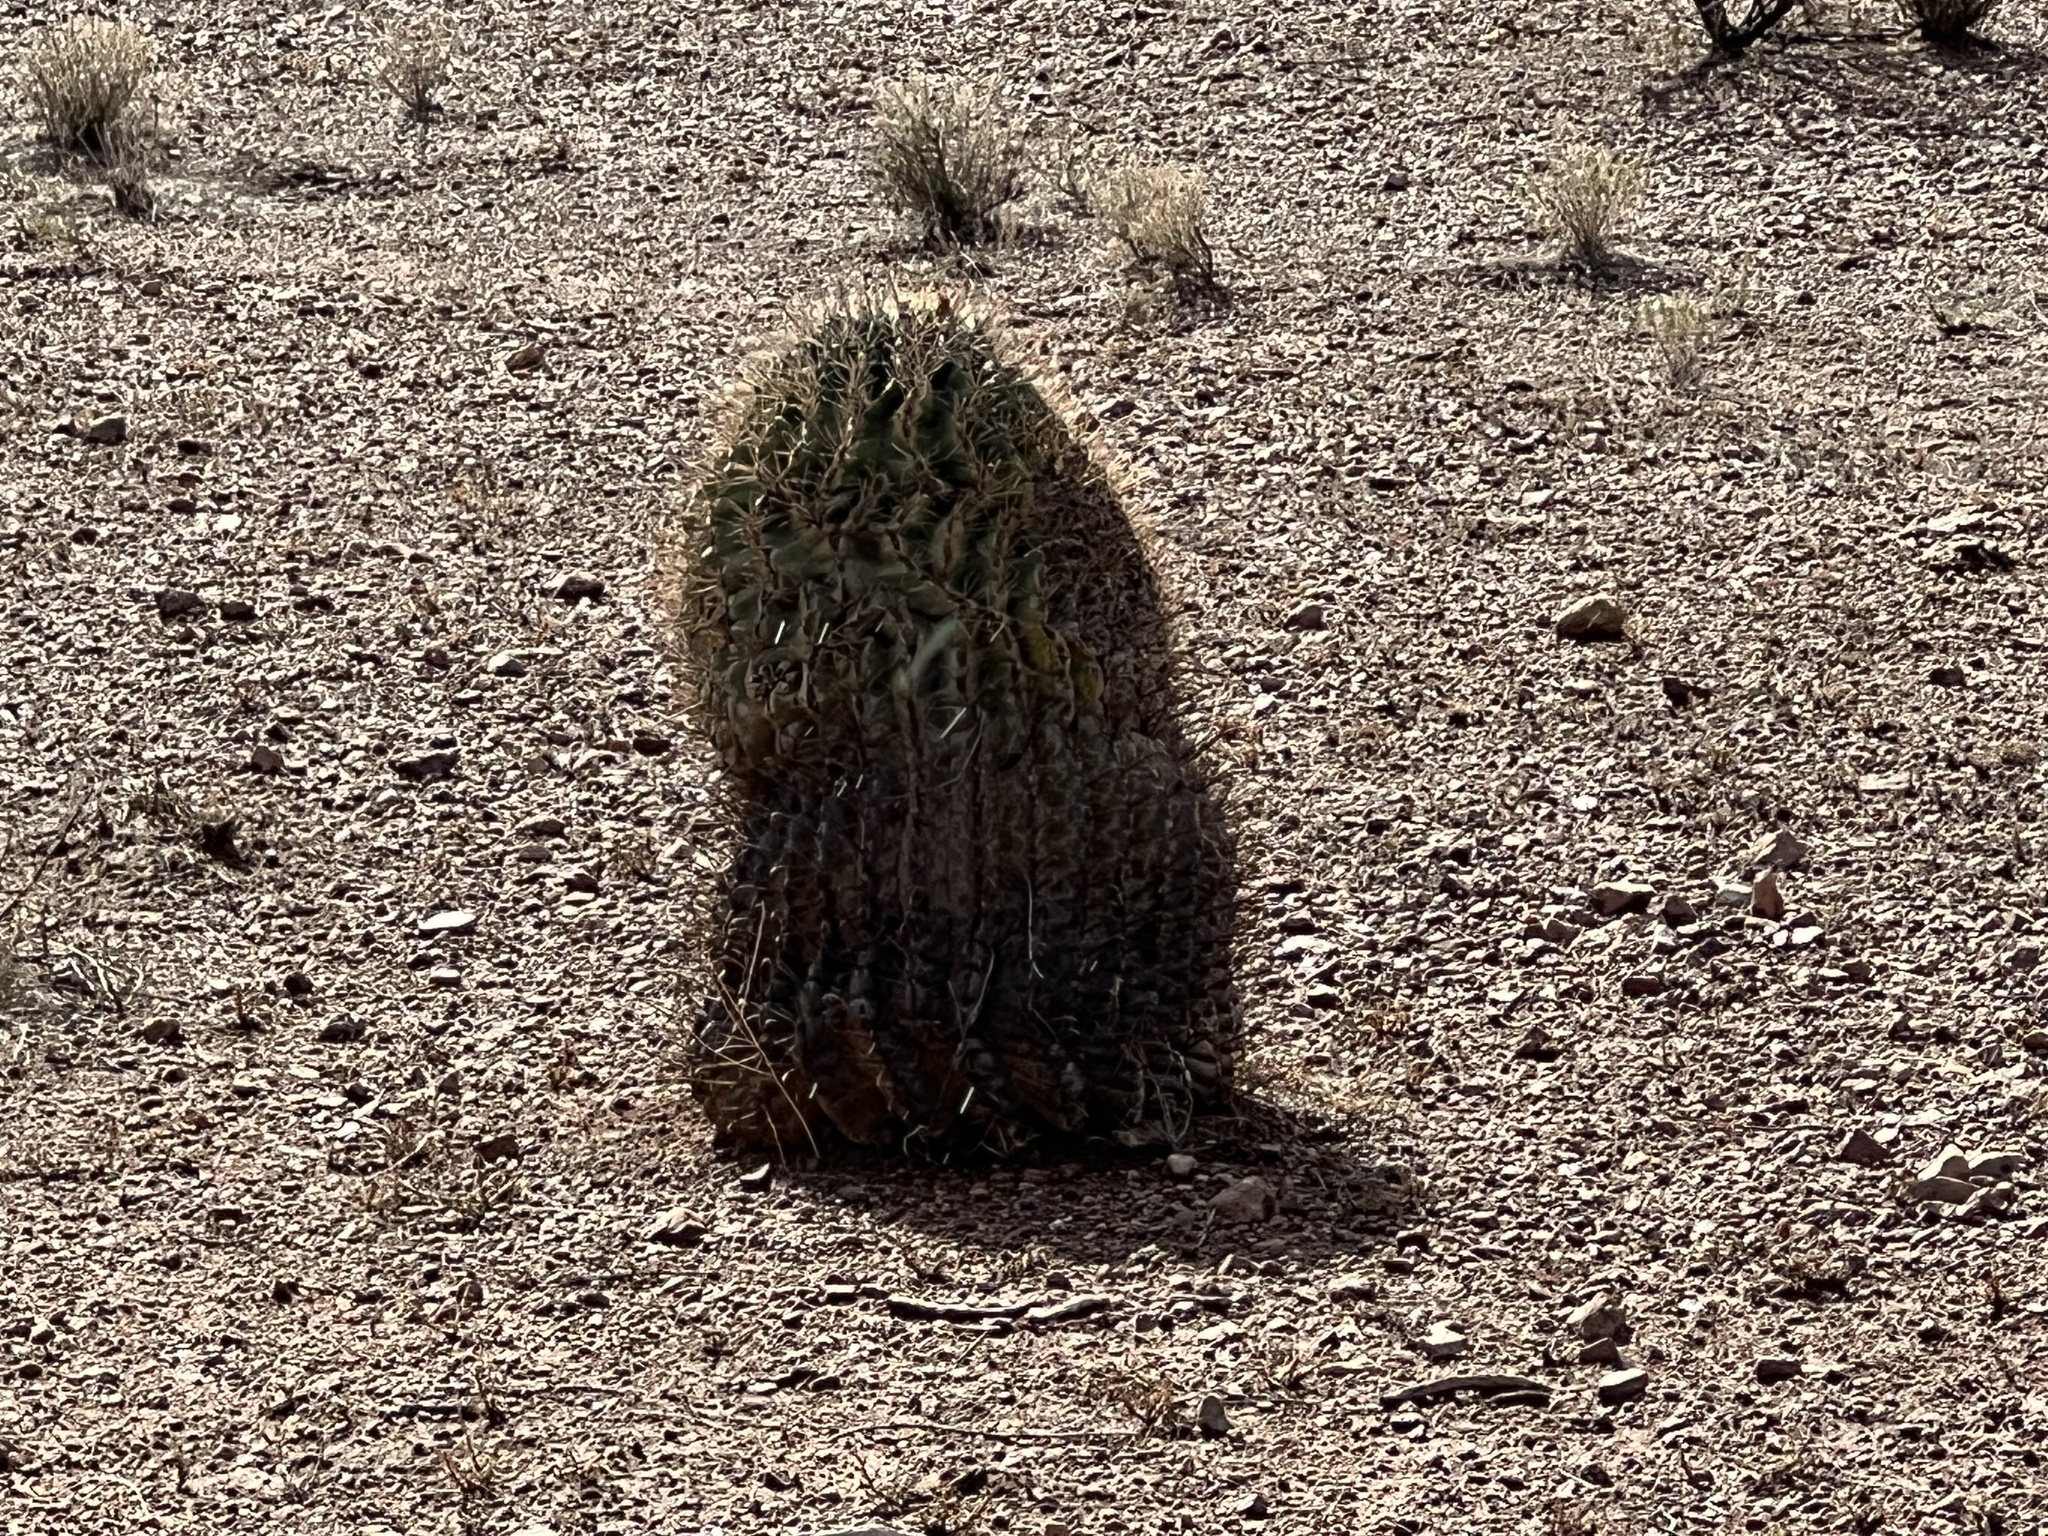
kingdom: Plantae
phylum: Tracheophyta
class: Magnoliopsida
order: Caryophyllales
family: Cactaceae
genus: Ferocactus
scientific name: Ferocactus wislizeni
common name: Candy barrel cactus
